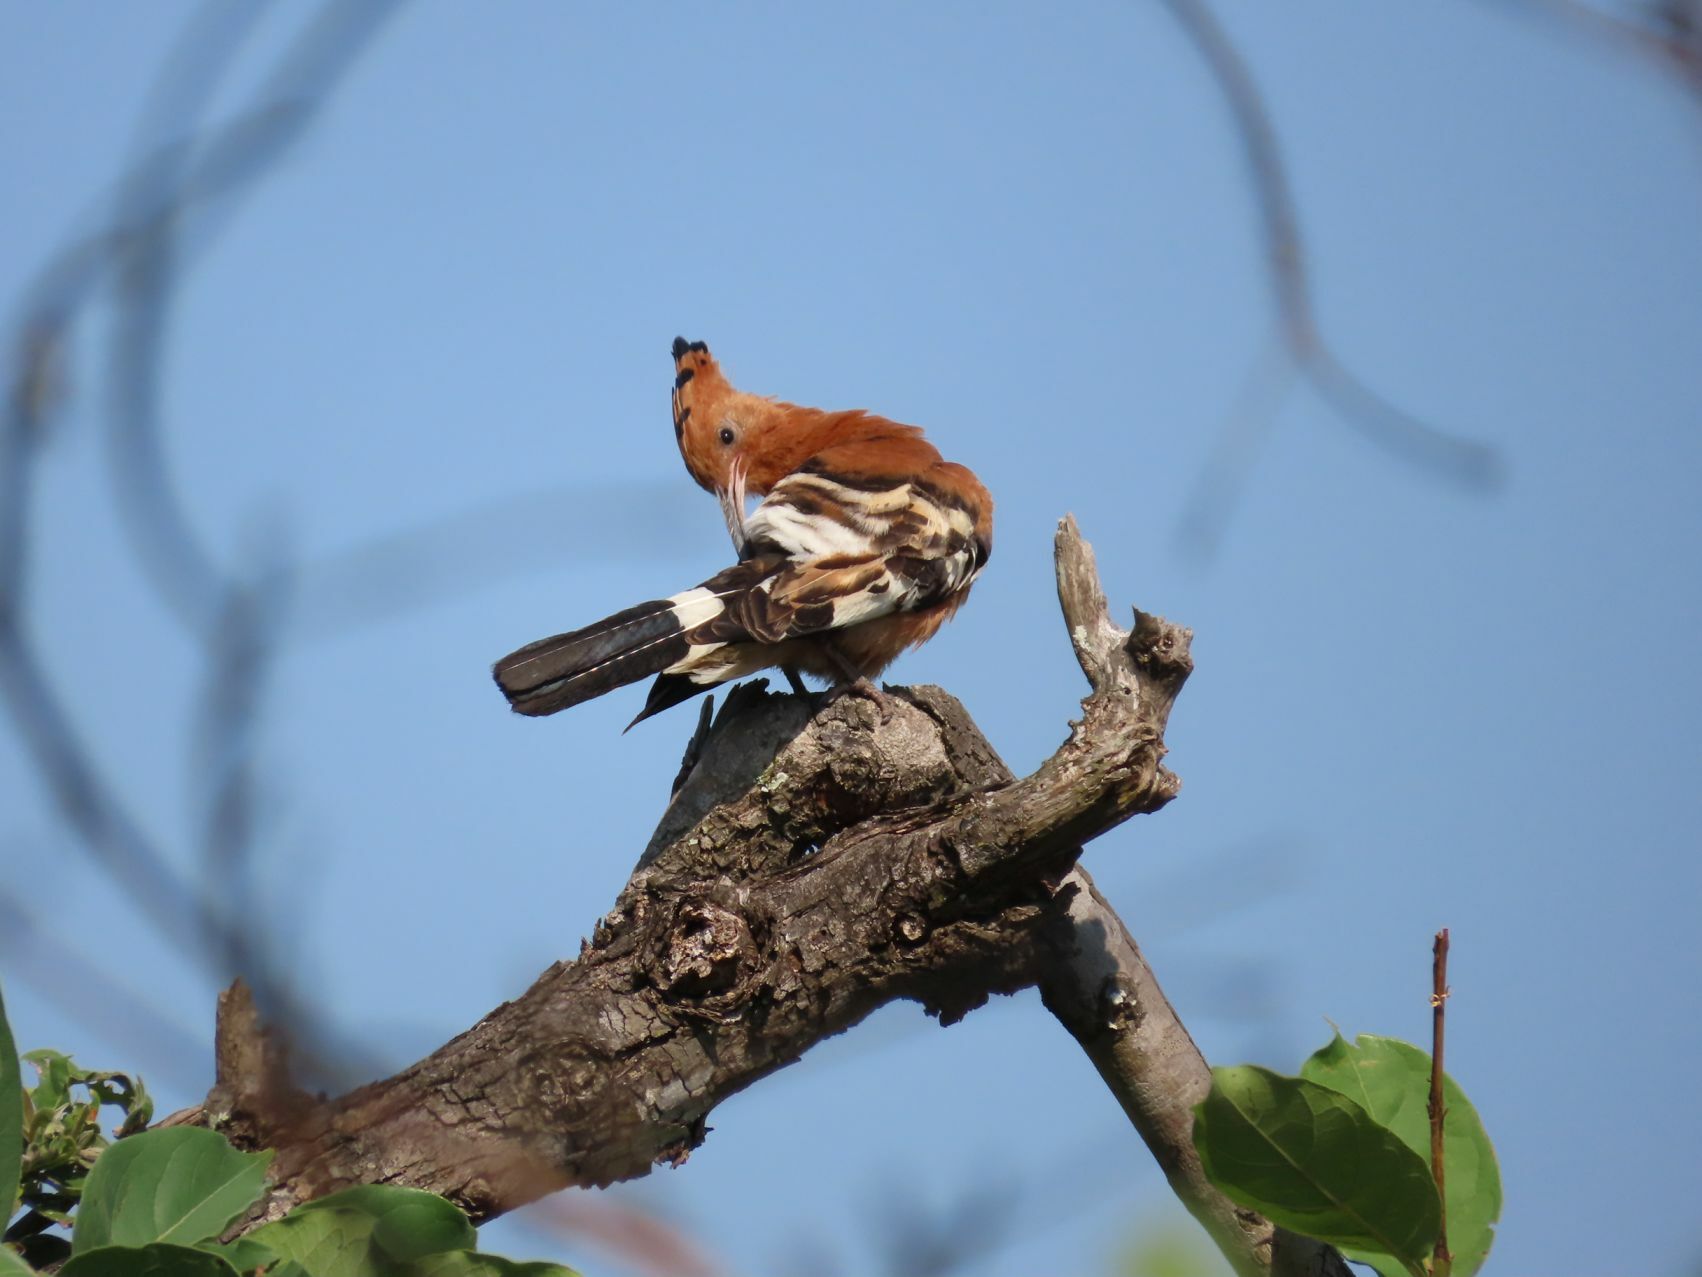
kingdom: Animalia
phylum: Chordata
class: Aves
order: Bucerotiformes
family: Upupidae
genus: Upupa
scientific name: Upupa africana
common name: African hoopoe
